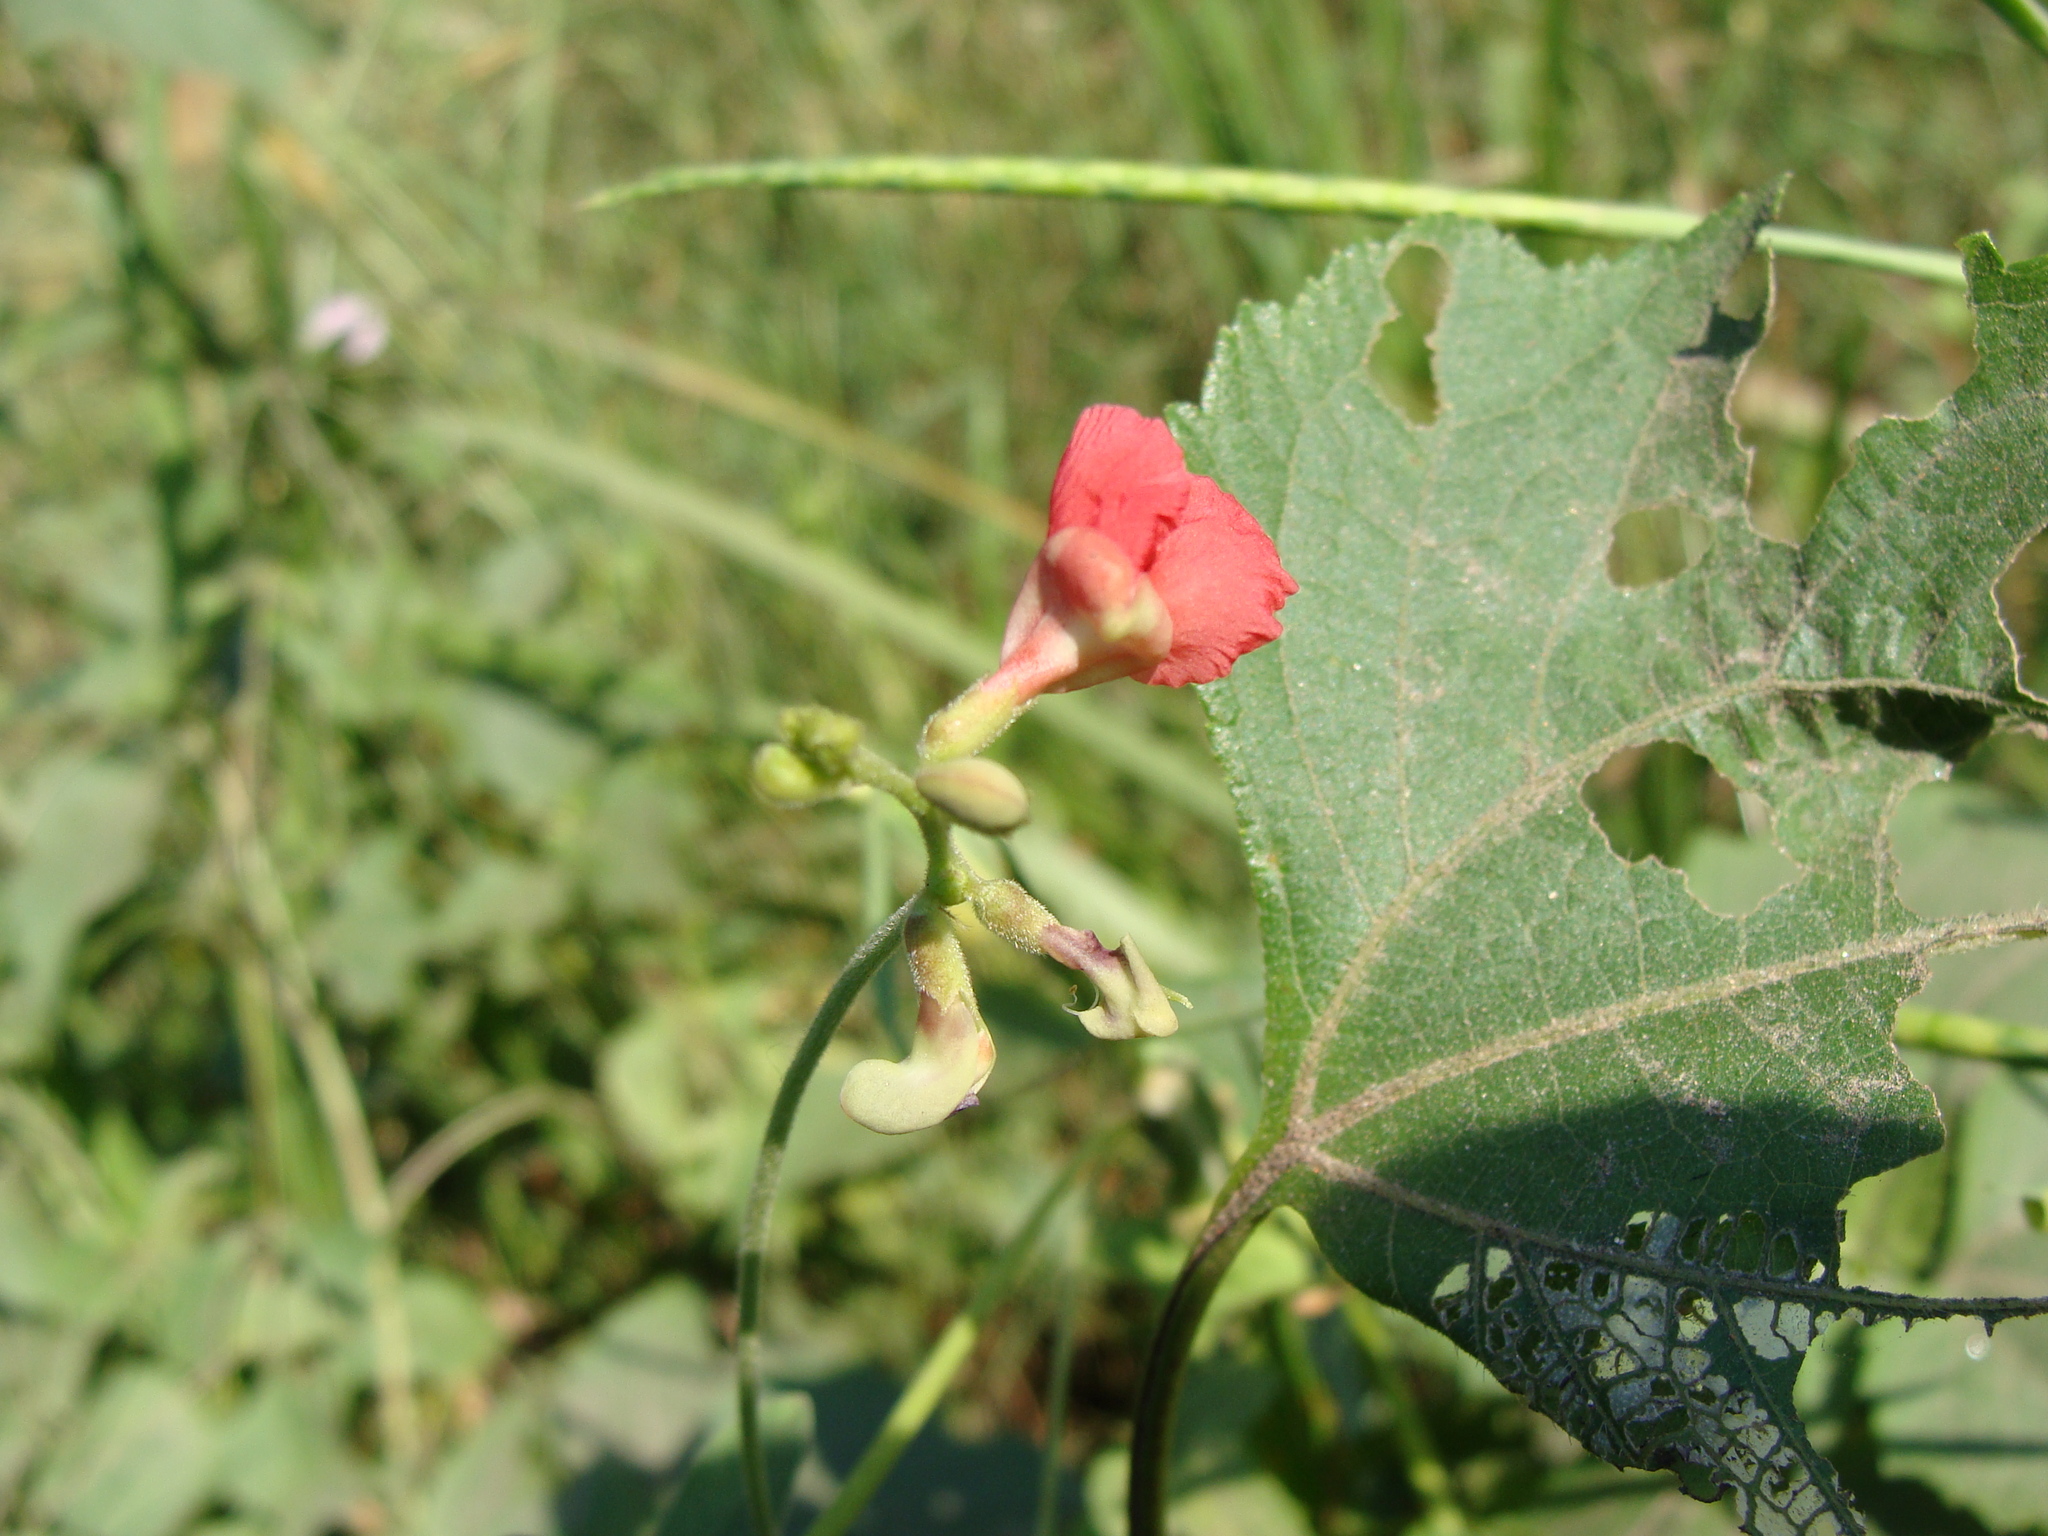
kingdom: Plantae
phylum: Tracheophyta
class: Magnoliopsida
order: Fabales
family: Fabaceae
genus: Macroptilium
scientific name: Macroptilium gracile
